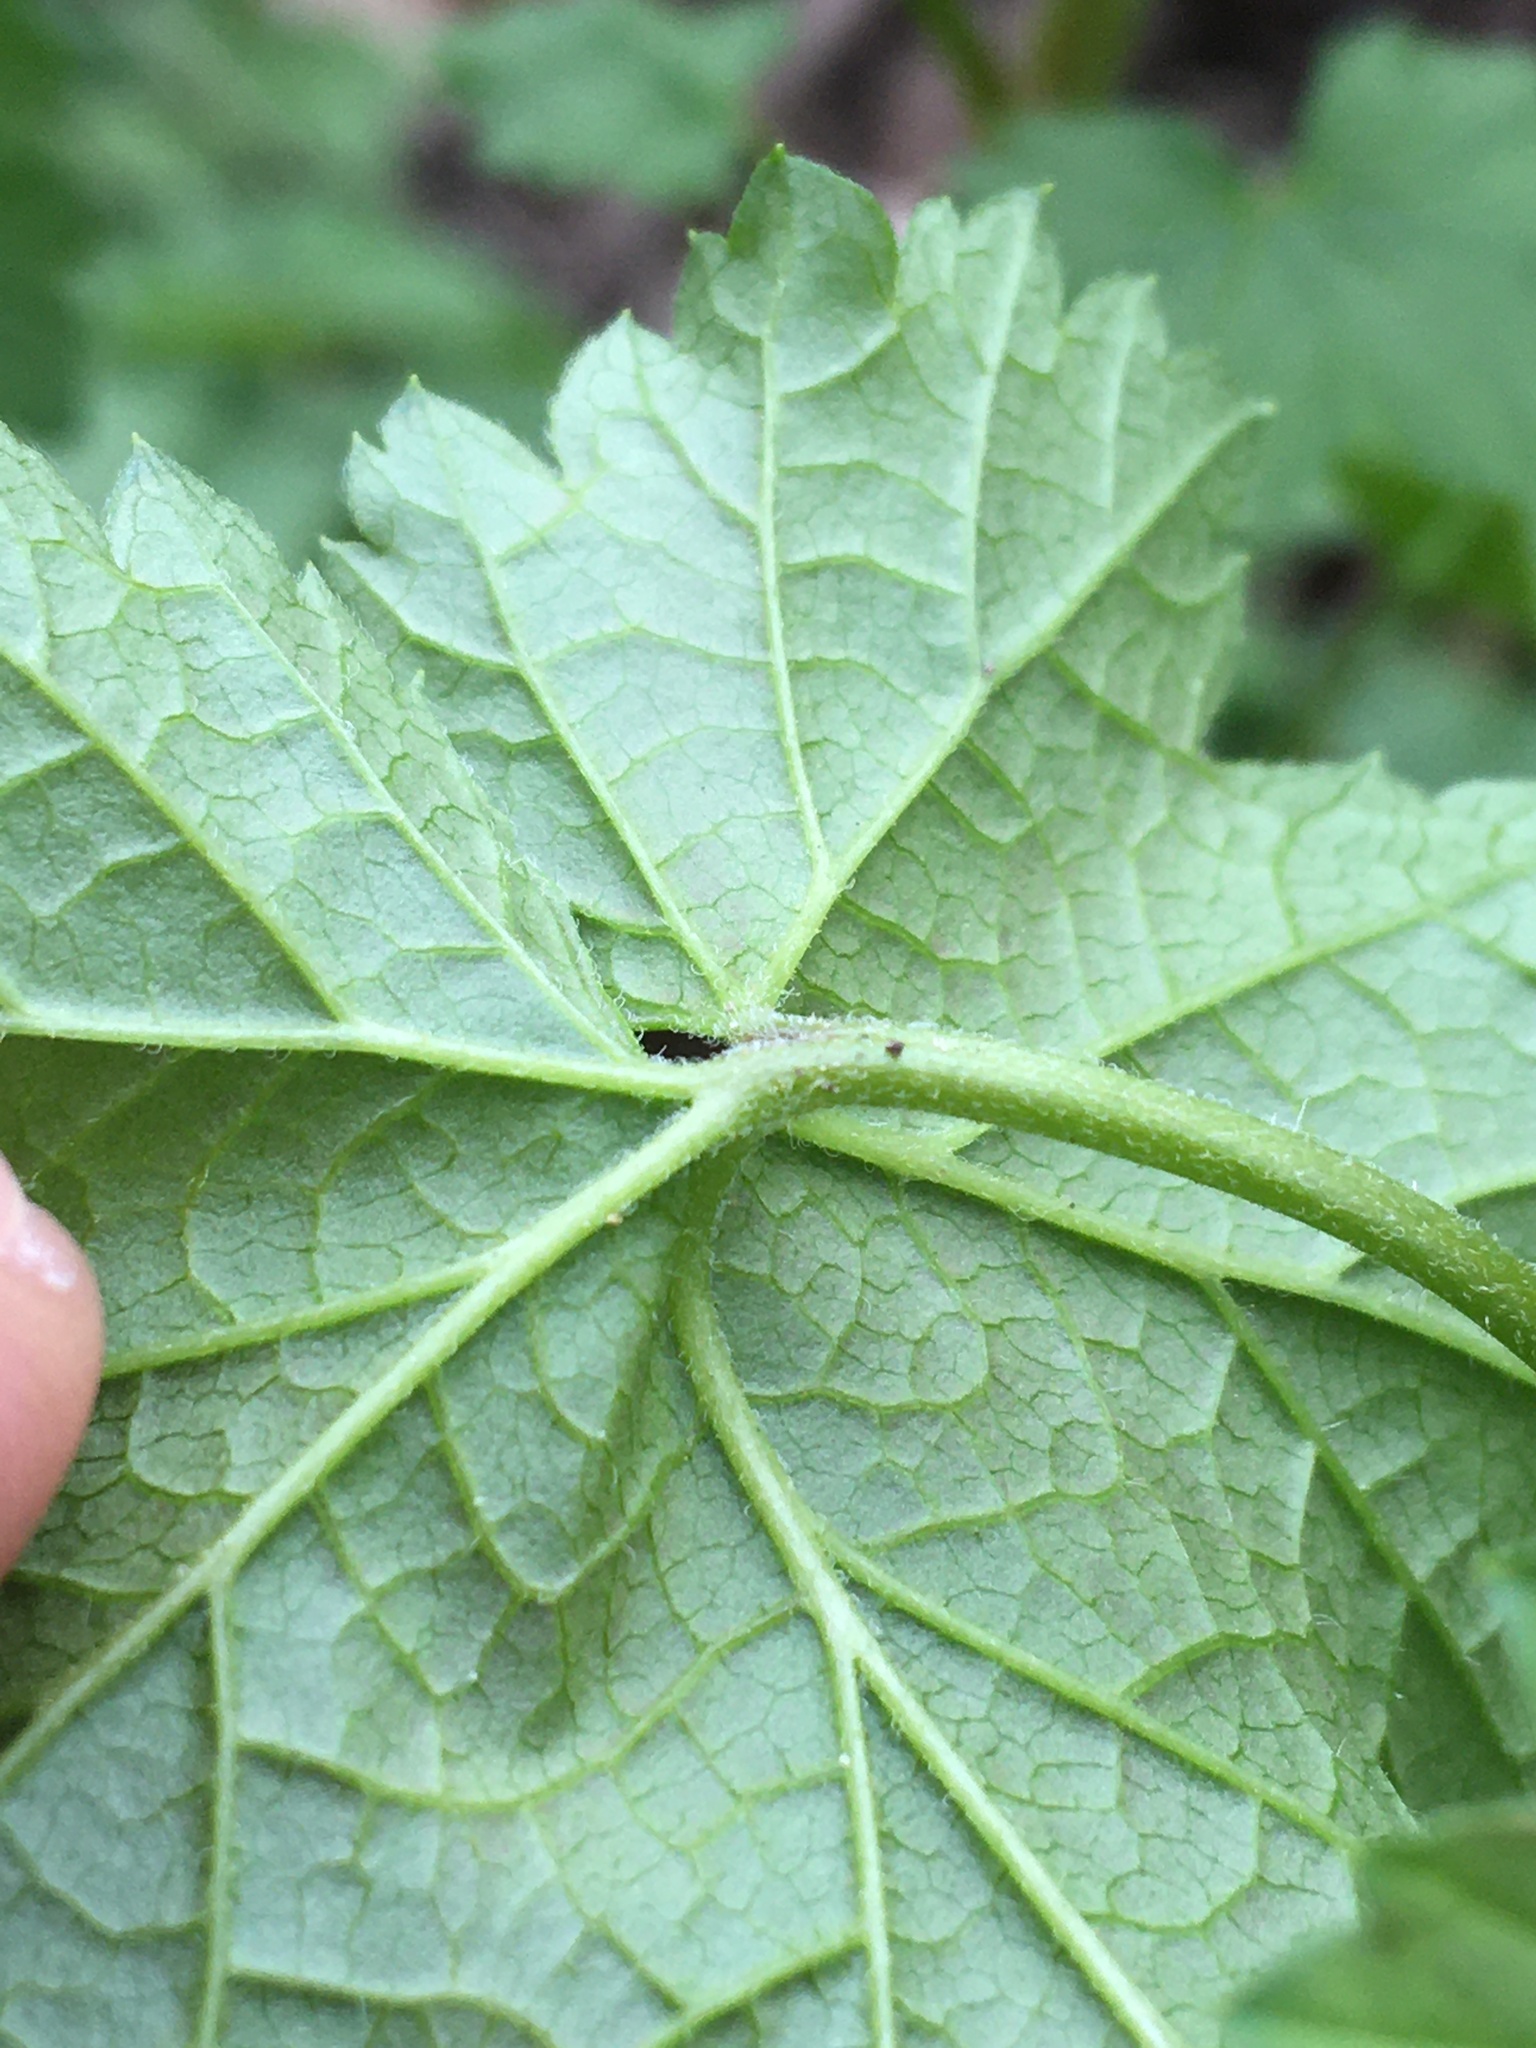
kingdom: Plantae
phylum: Tracheophyta
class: Magnoliopsida
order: Saxifragales
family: Grossulariaceae
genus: Ribes
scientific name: Ribes triste
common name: Swamp red currant
